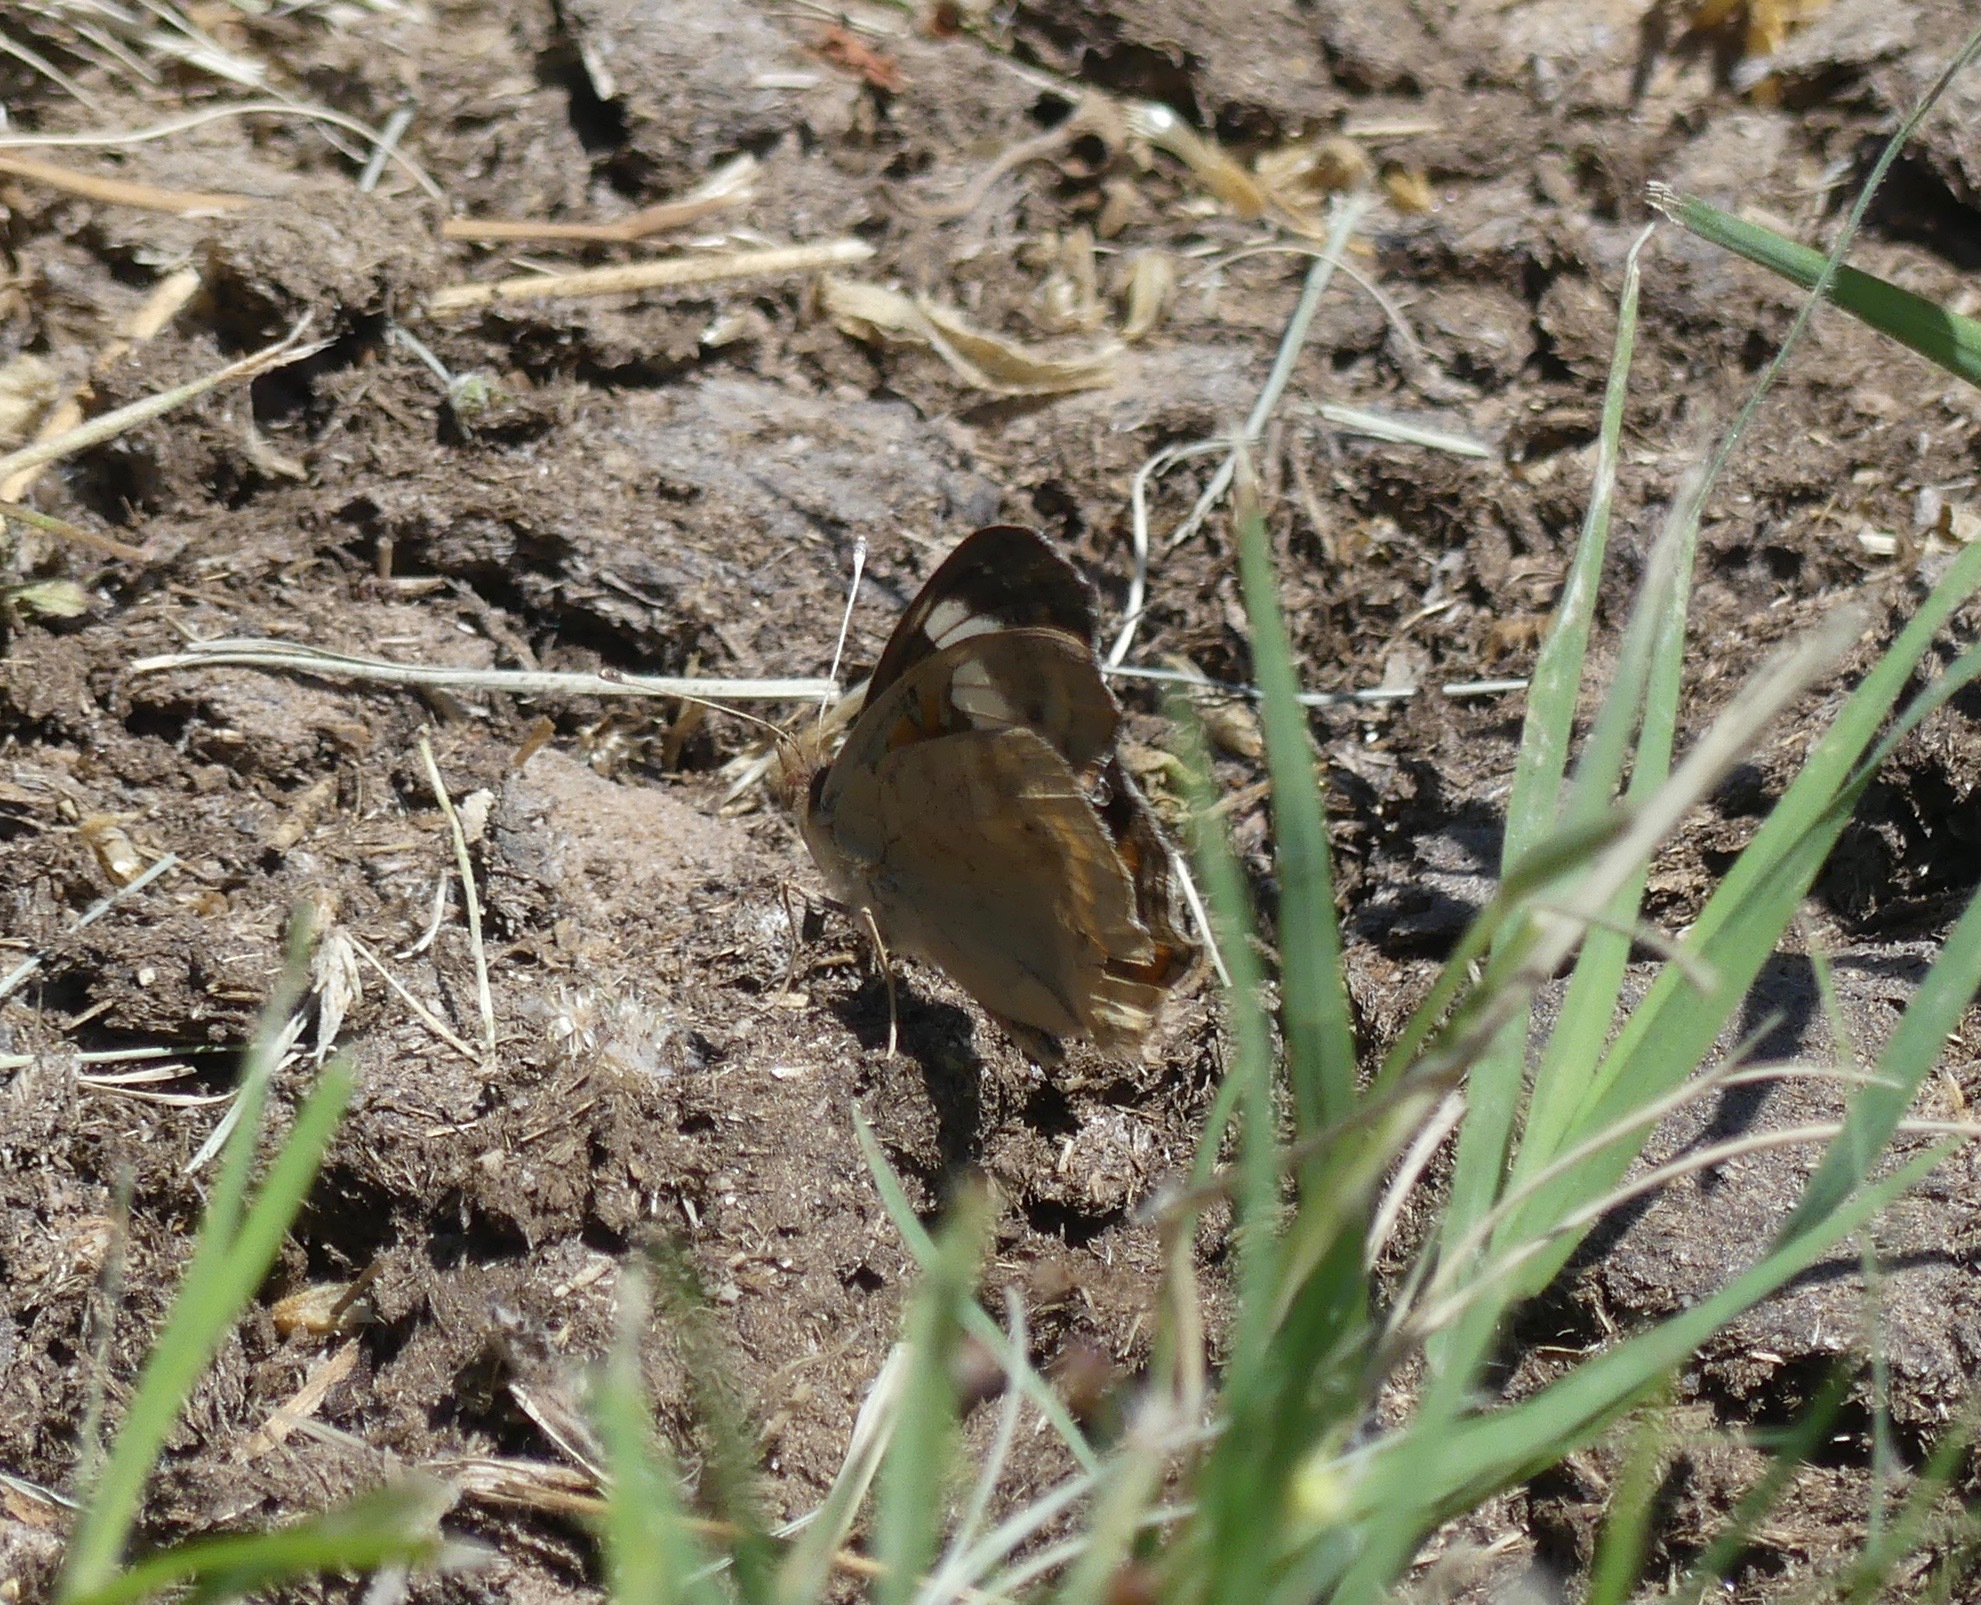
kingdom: Animalia
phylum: Arthropoda
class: Insecta
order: Lepidoptera
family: Nymphalidae
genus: Junonia
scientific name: Junonia coenia
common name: Common buckeye
